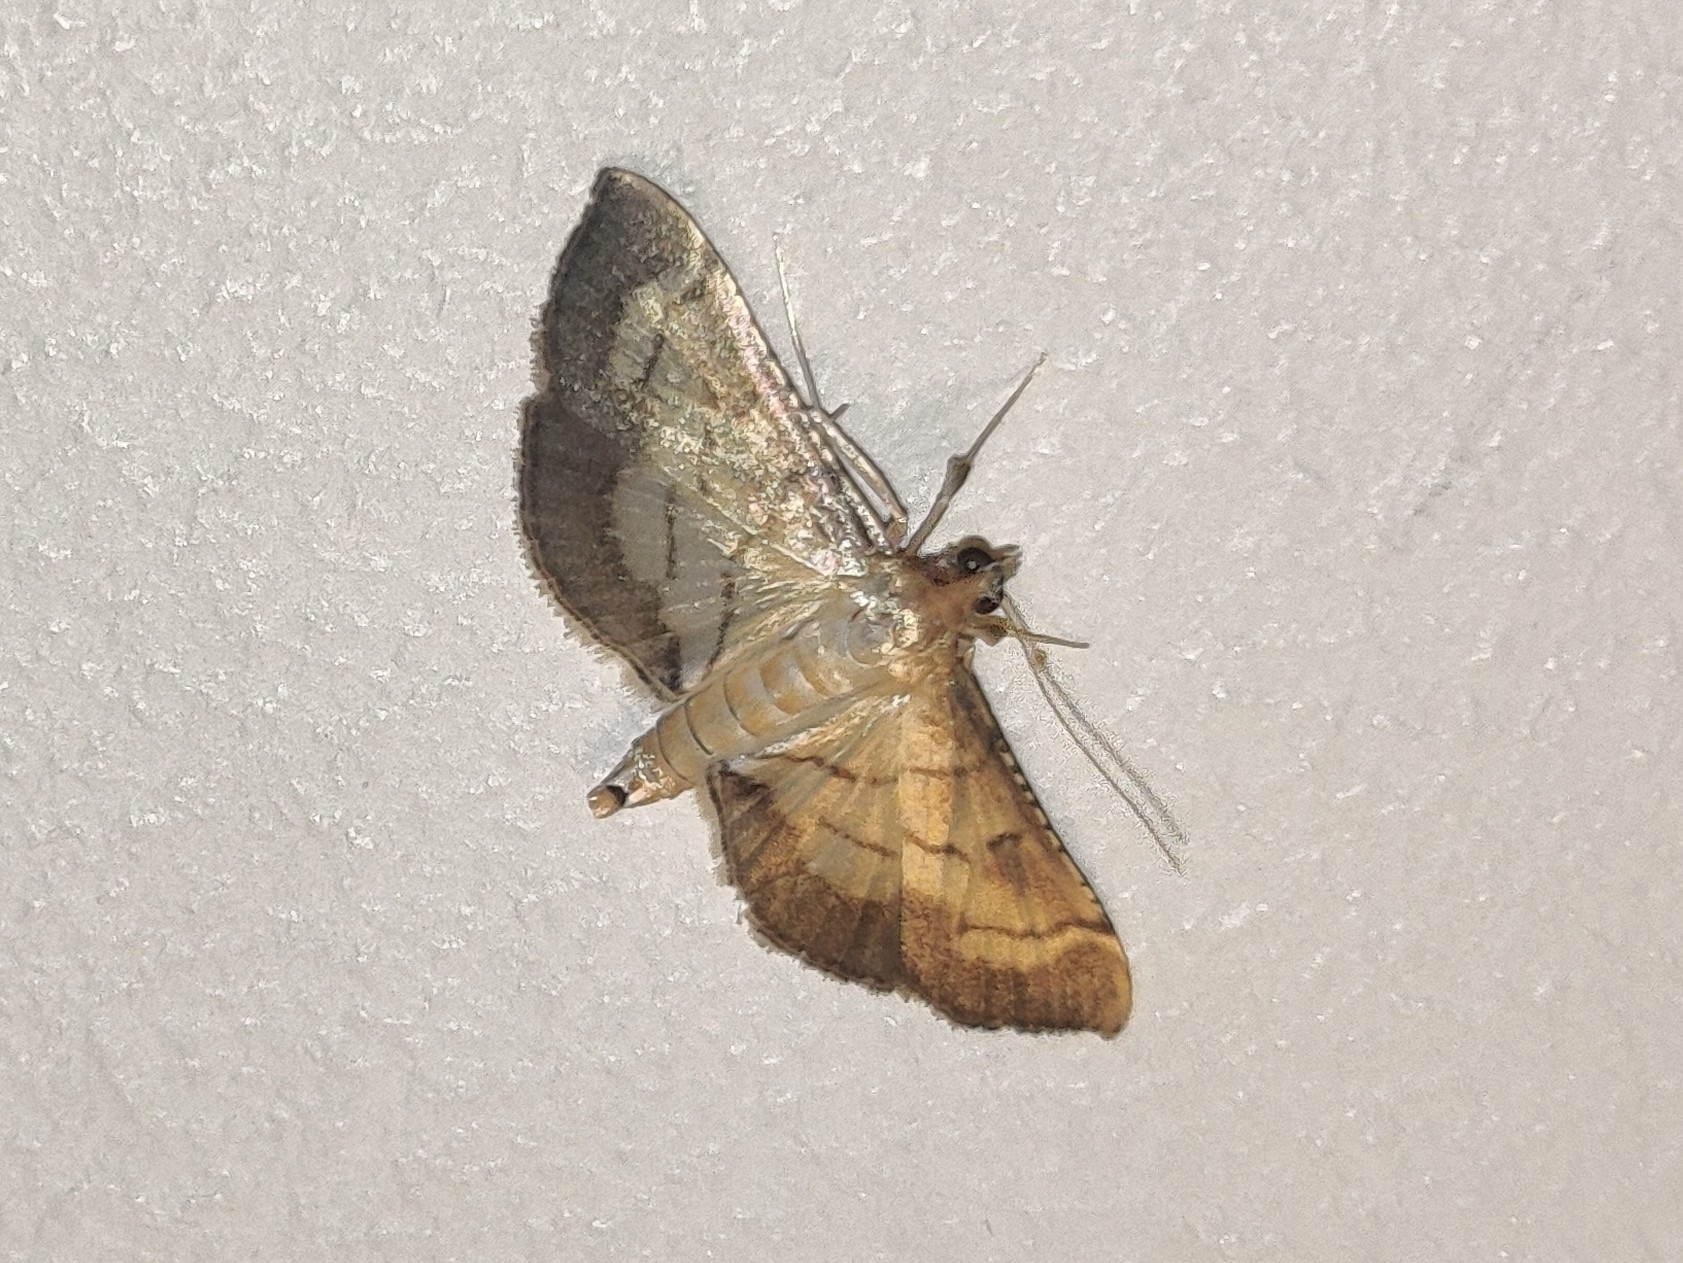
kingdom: Animalia
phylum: Arthropoda
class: Insecta
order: Lepidoptera
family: Crambidae
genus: Cnaphalocrocis
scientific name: Cnaphalocrocis poeyalis
